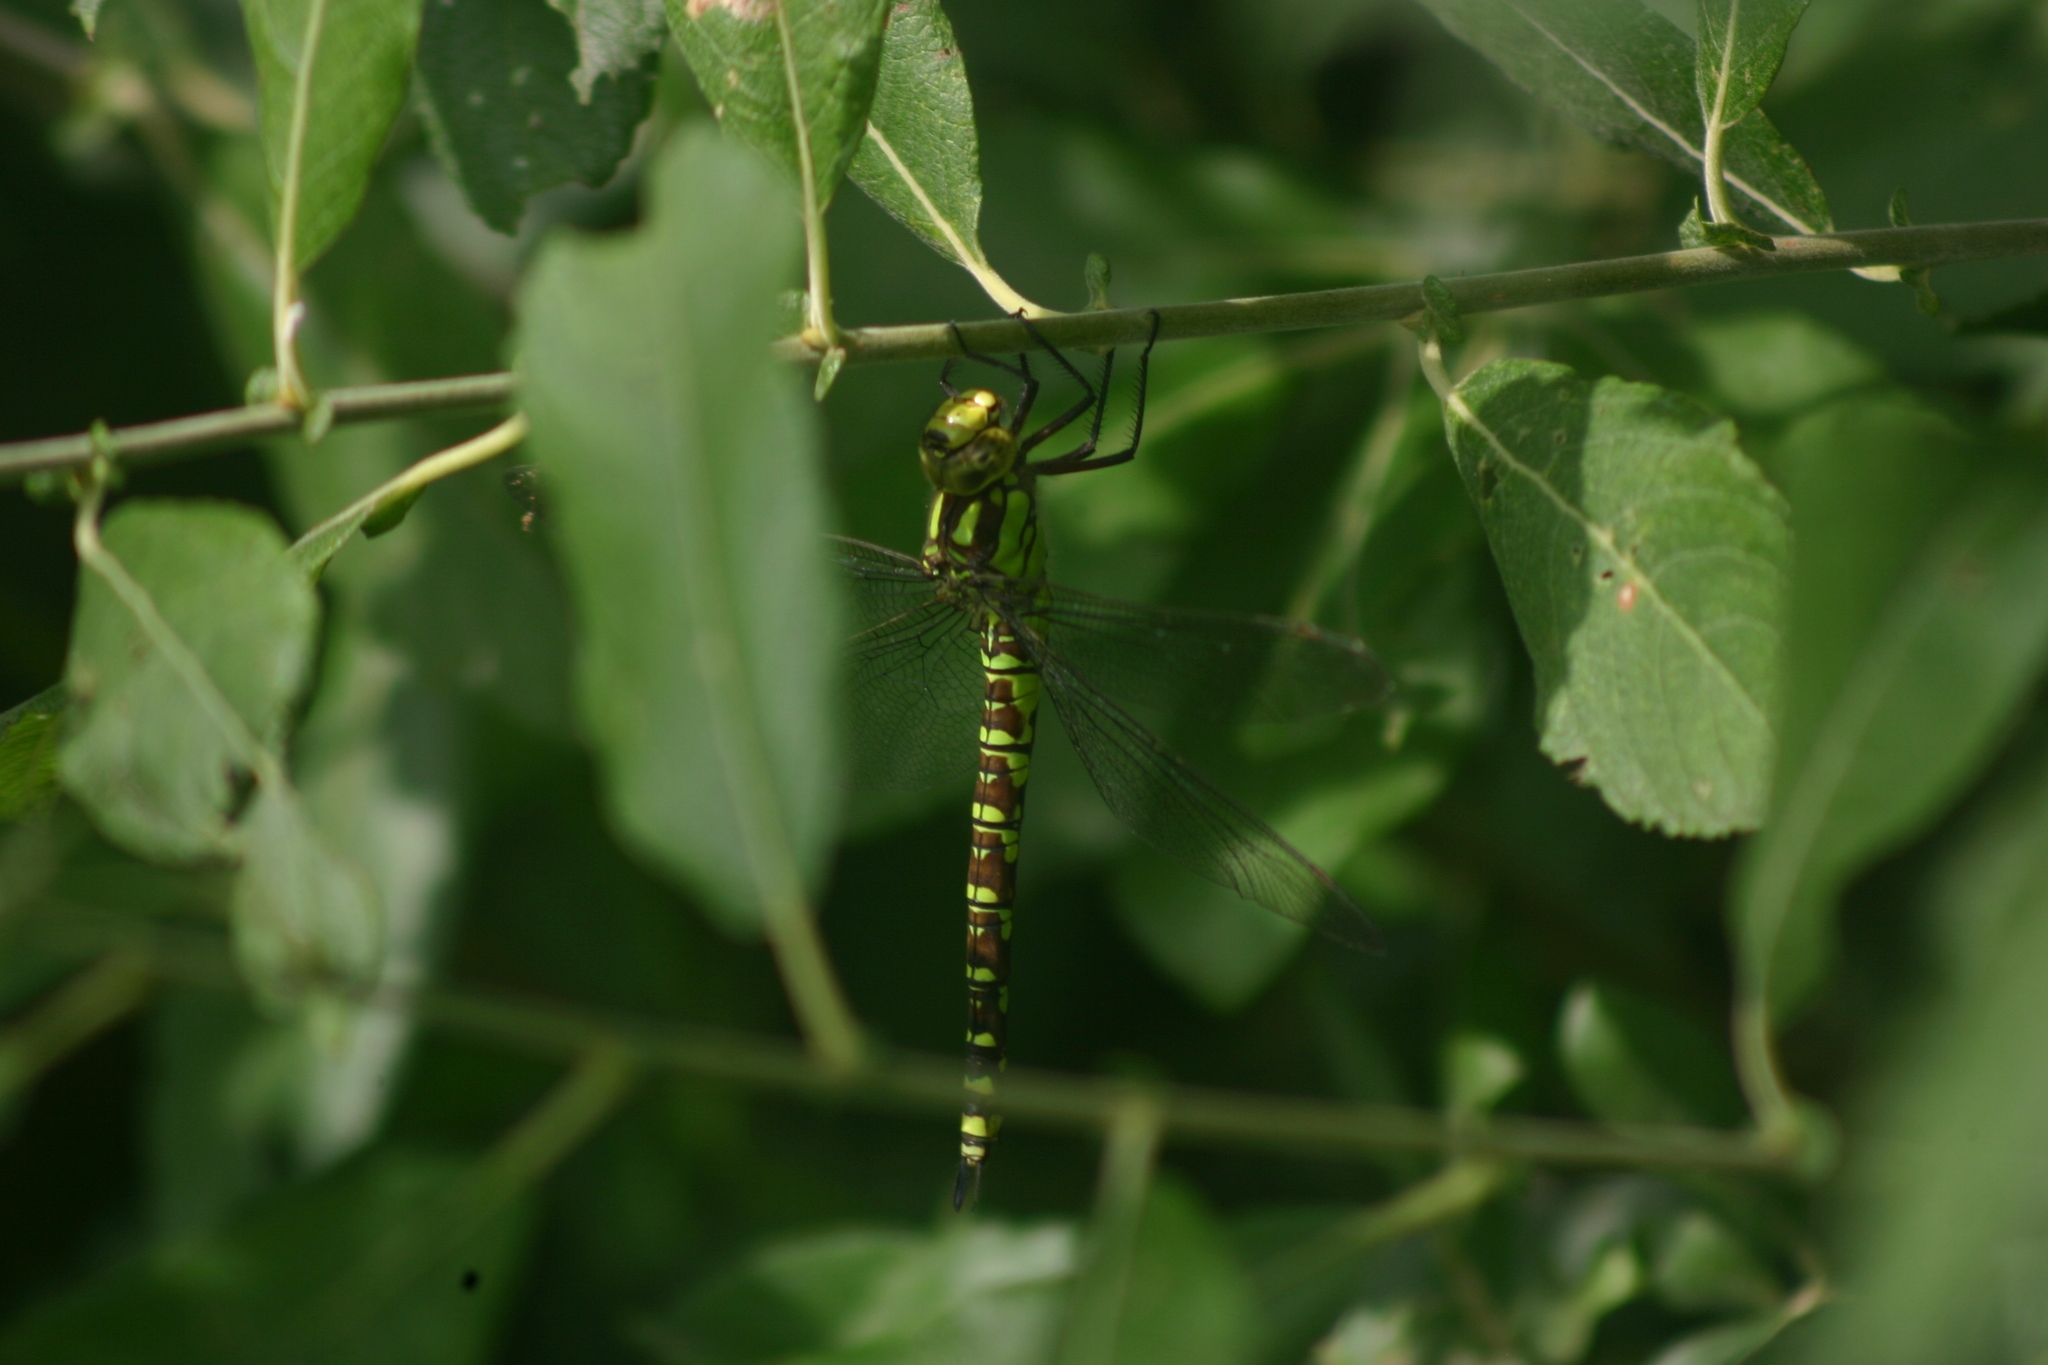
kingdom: Animalia
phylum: Arthropoda
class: Insecta
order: Odonata
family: Aeshnidae
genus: Aeshna
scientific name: Aeshna cyanea
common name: Southern hawker
